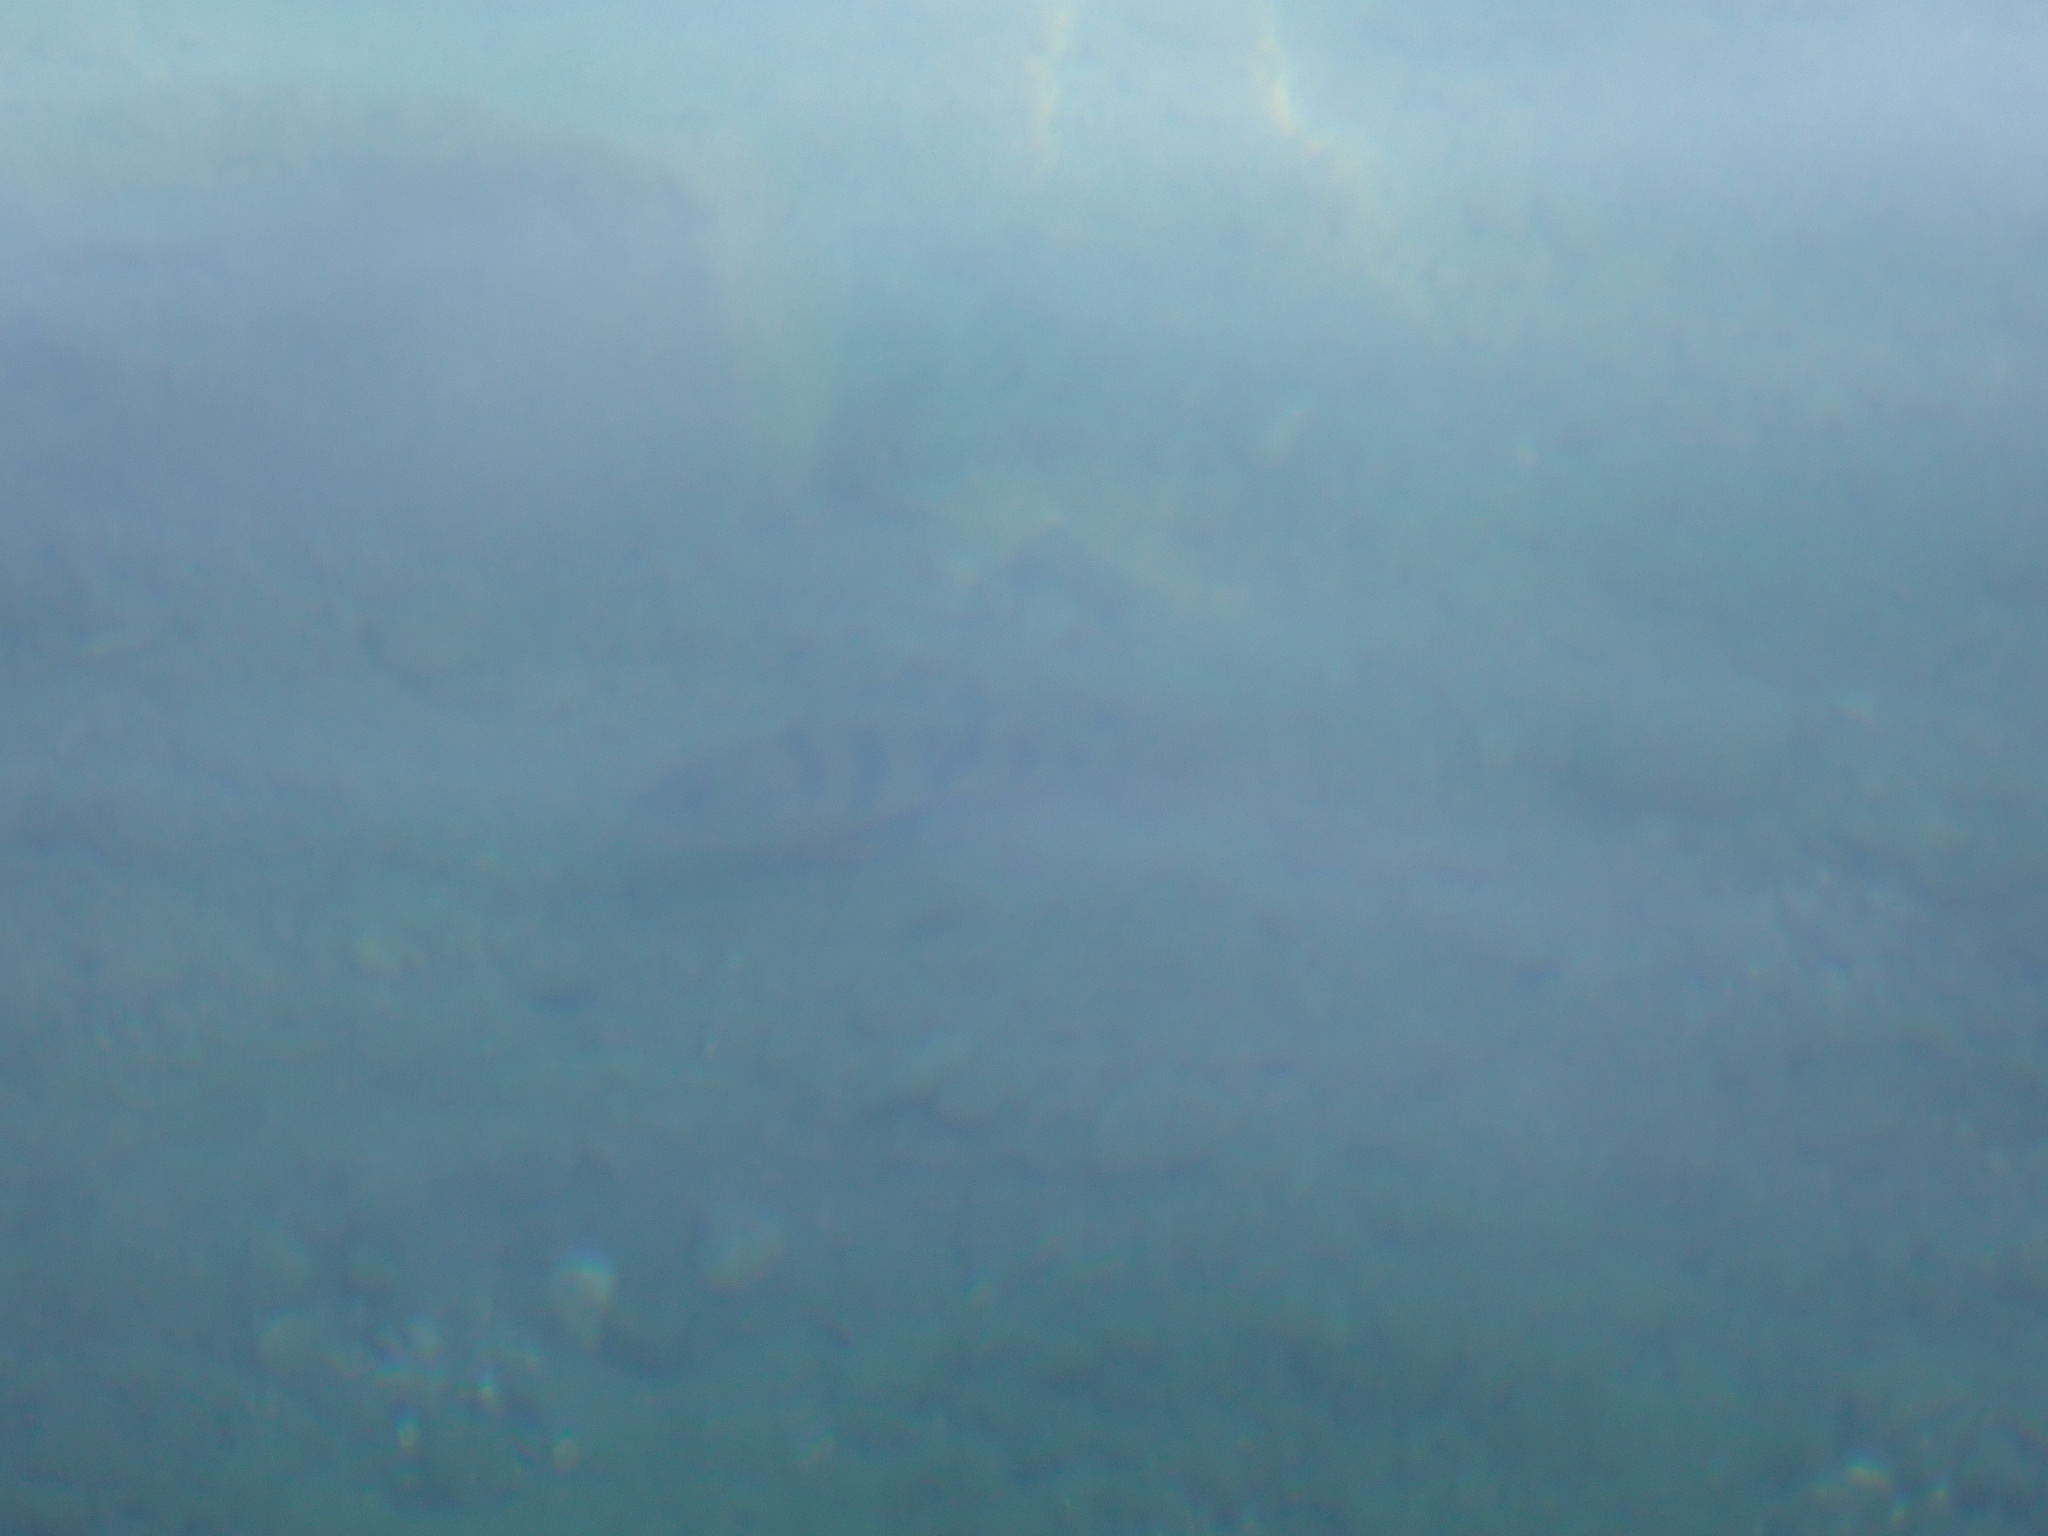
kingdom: Animalia
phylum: Chordata
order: Perciformes
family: Percidae
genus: Perca
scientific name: Perca fluviatilis
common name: Perch
